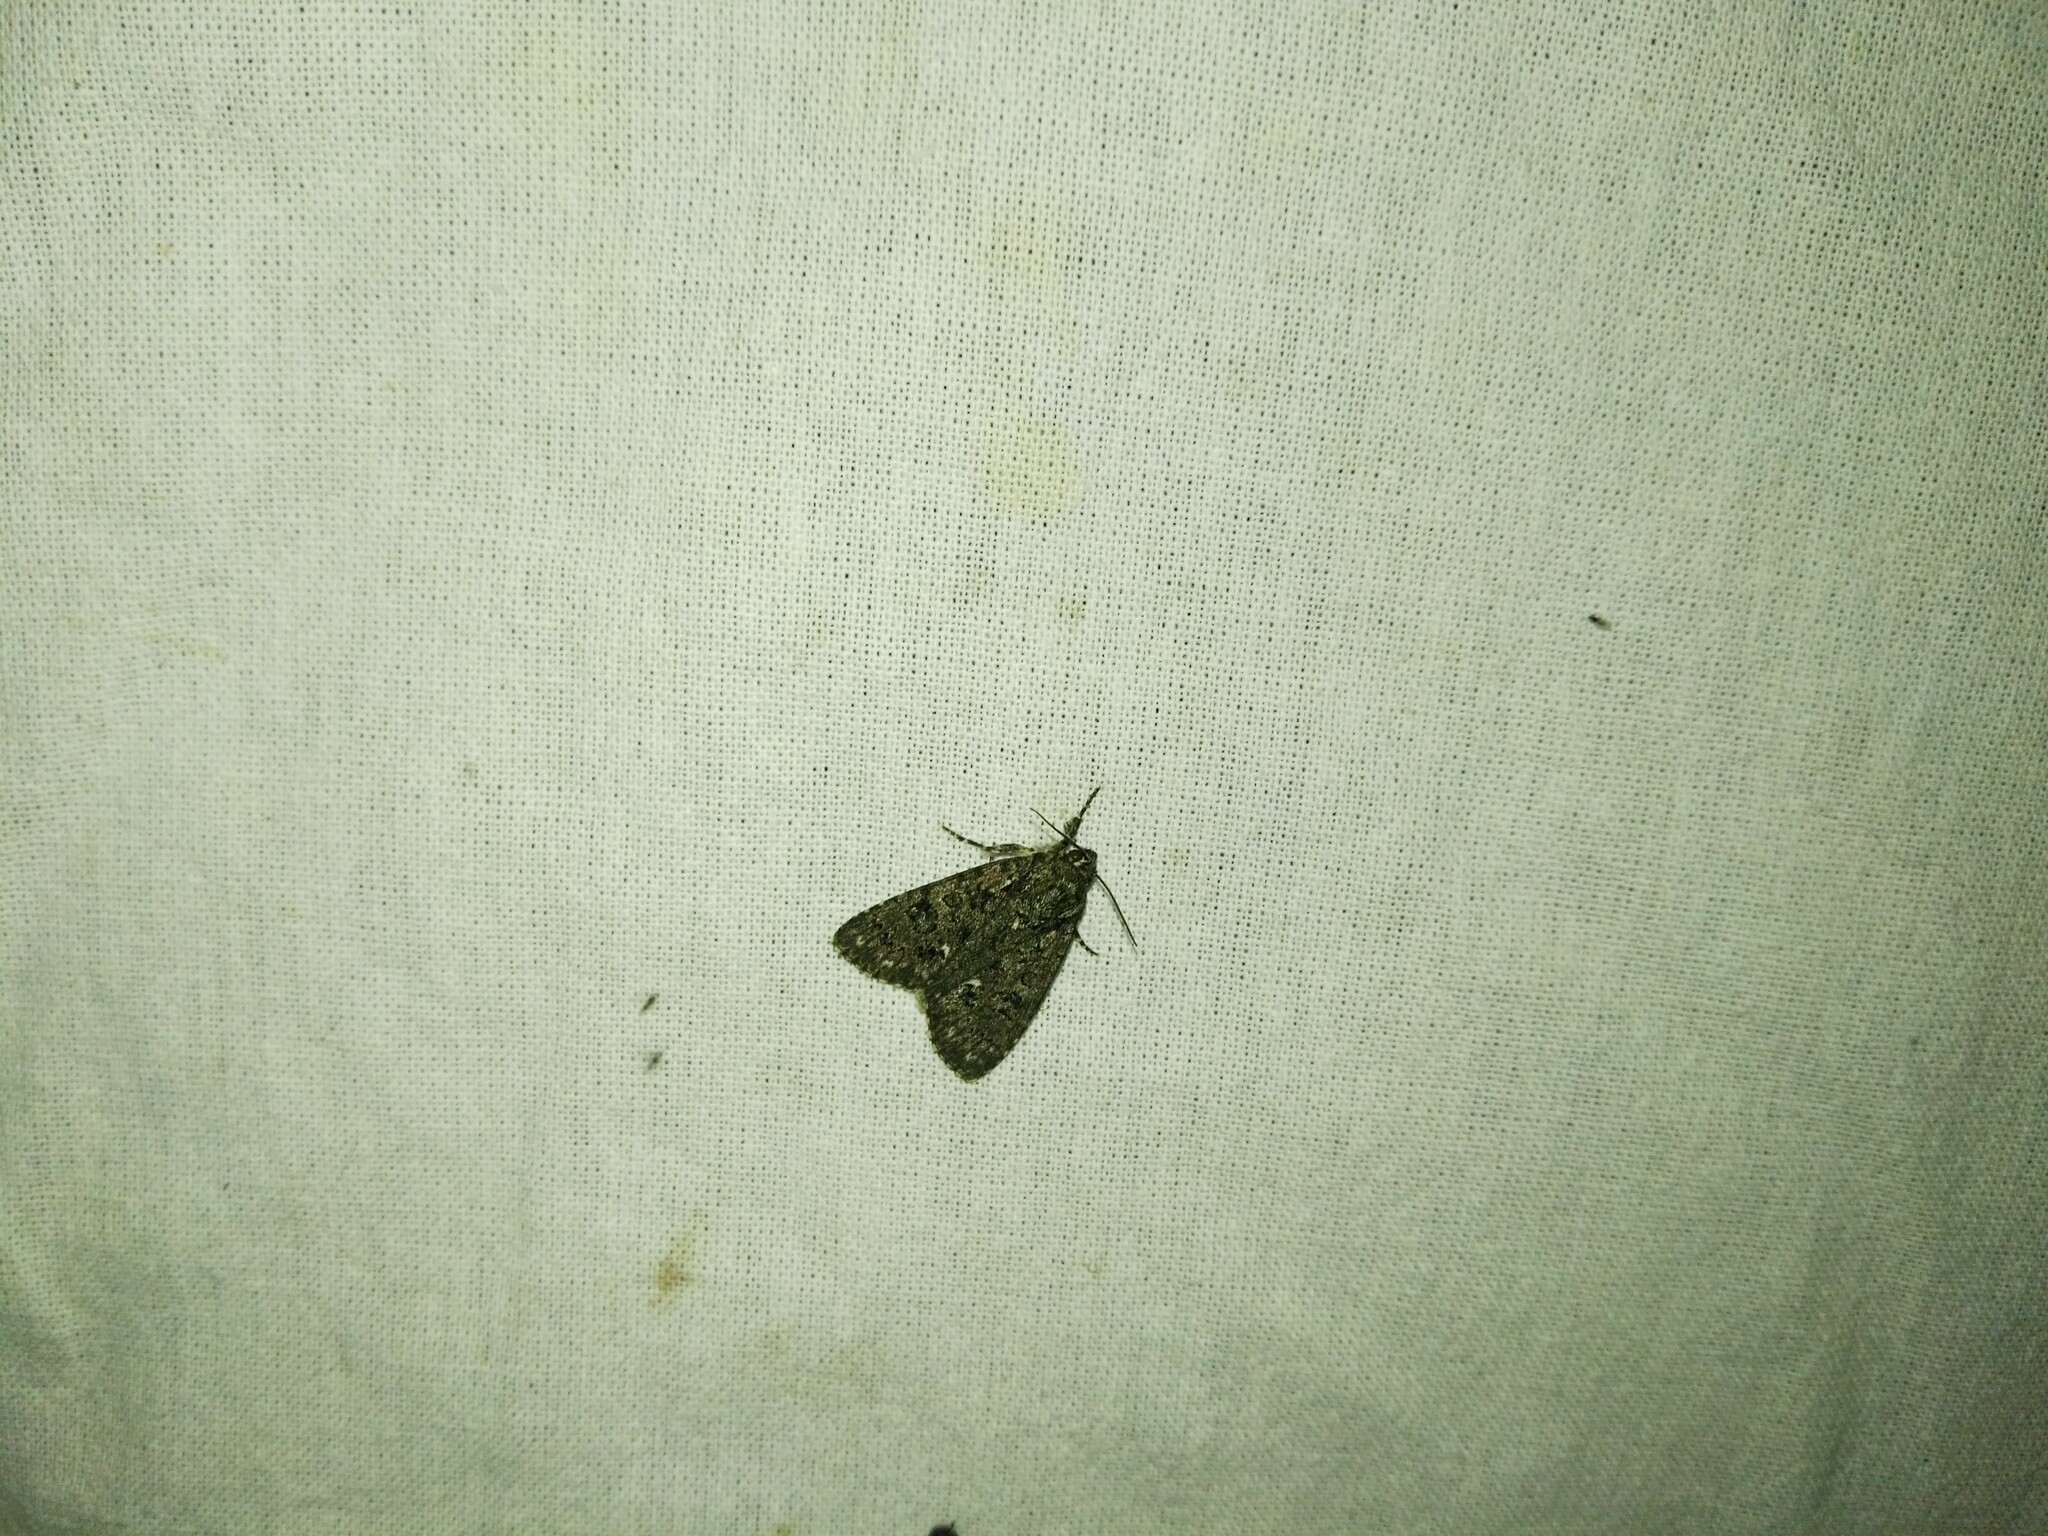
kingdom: Animalia
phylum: Arthropoda
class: Insecta
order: Lepidoptera
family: Noctuidae
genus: Acronicta
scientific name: Acronicta rumicis
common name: Knot grass
